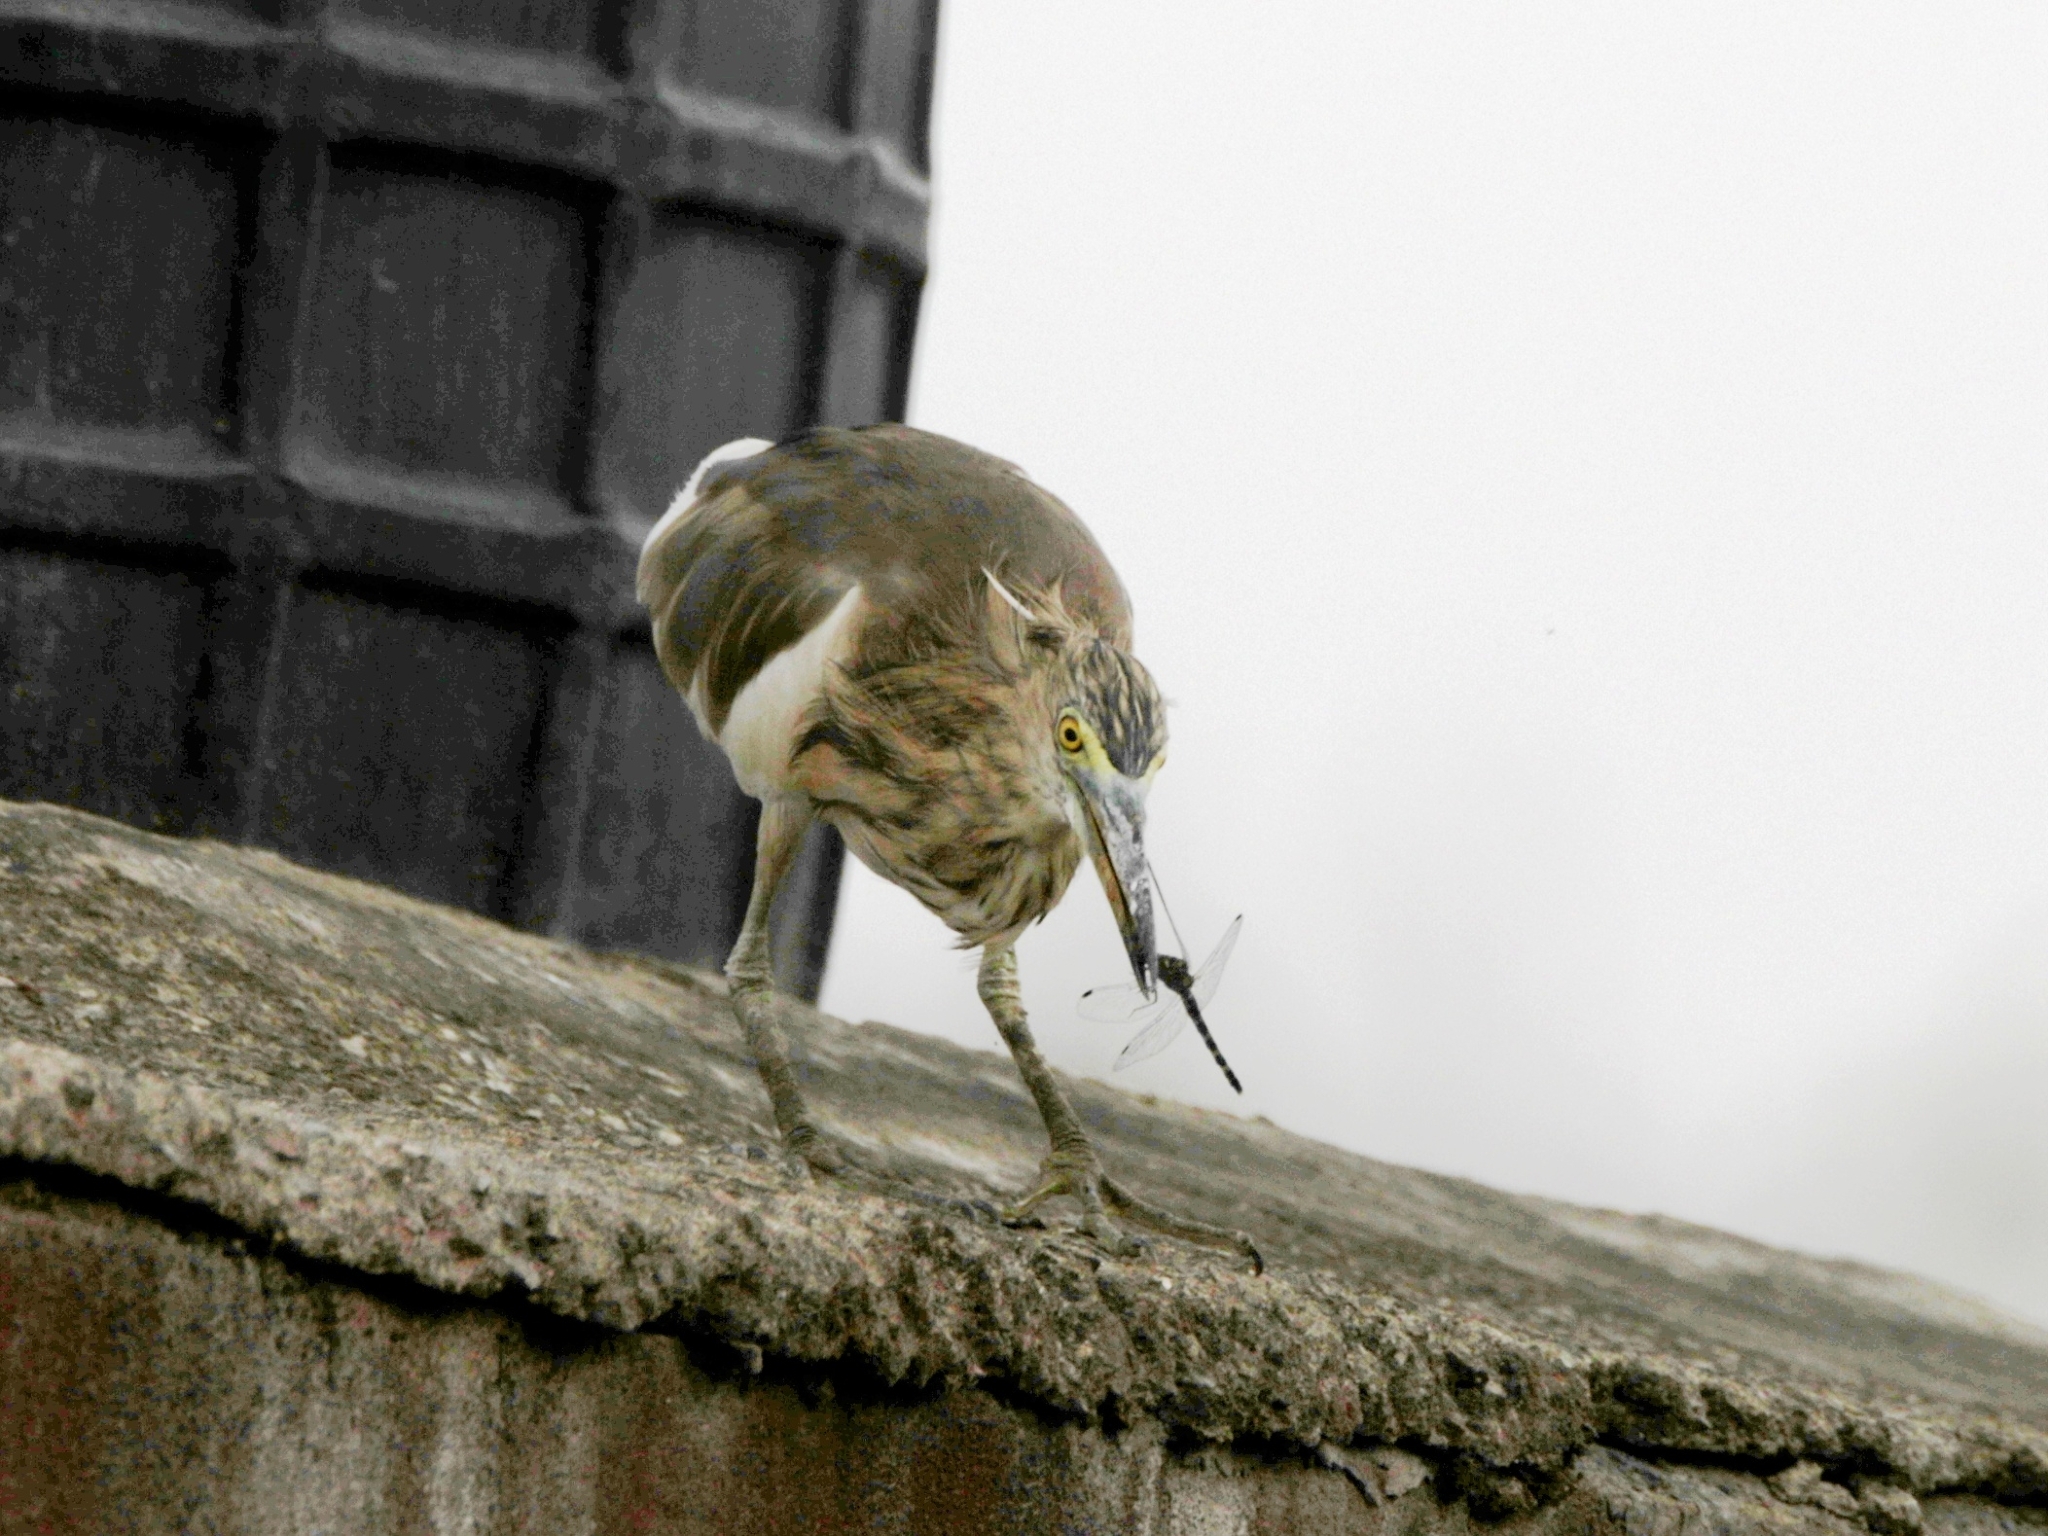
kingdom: Animalia
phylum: Chordata
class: Aves
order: Pelecaniformes
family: Ardeidae
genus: Ardeola
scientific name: Ardeola grayii
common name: Indian pond heron
